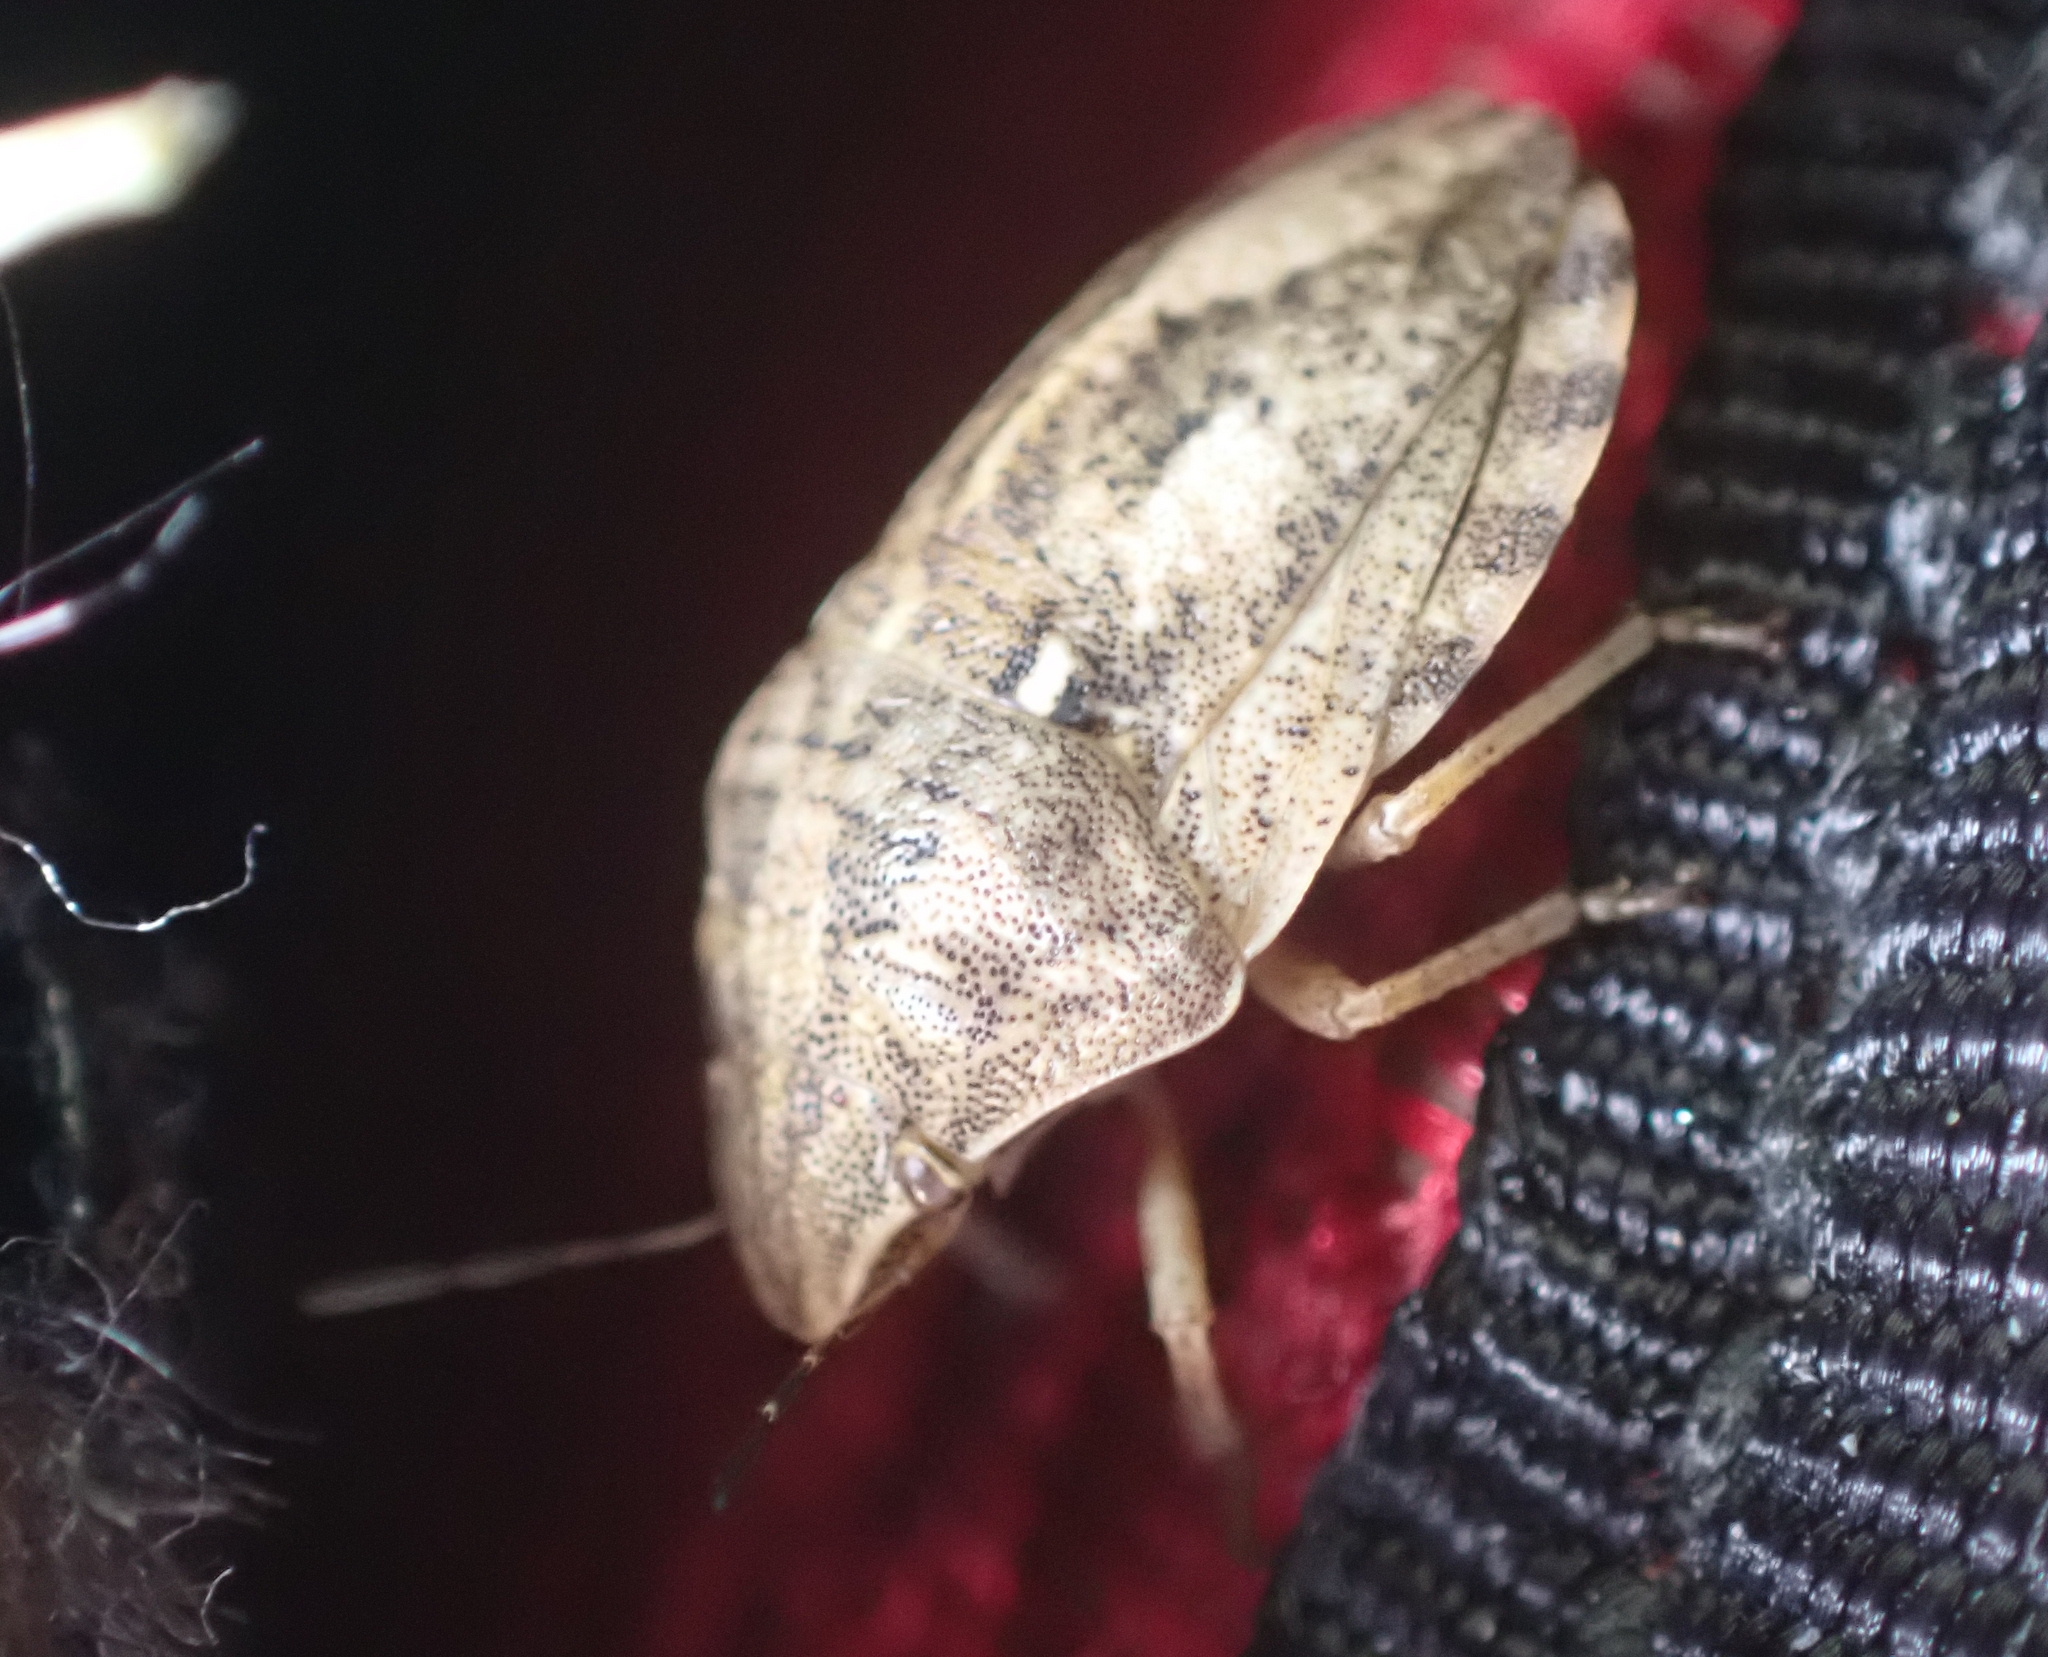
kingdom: Animalia
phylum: Arthropoda
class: Insecta
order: Hemiptera
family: Scutelleridae
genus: Eurygaster
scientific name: Eurygaster maura
